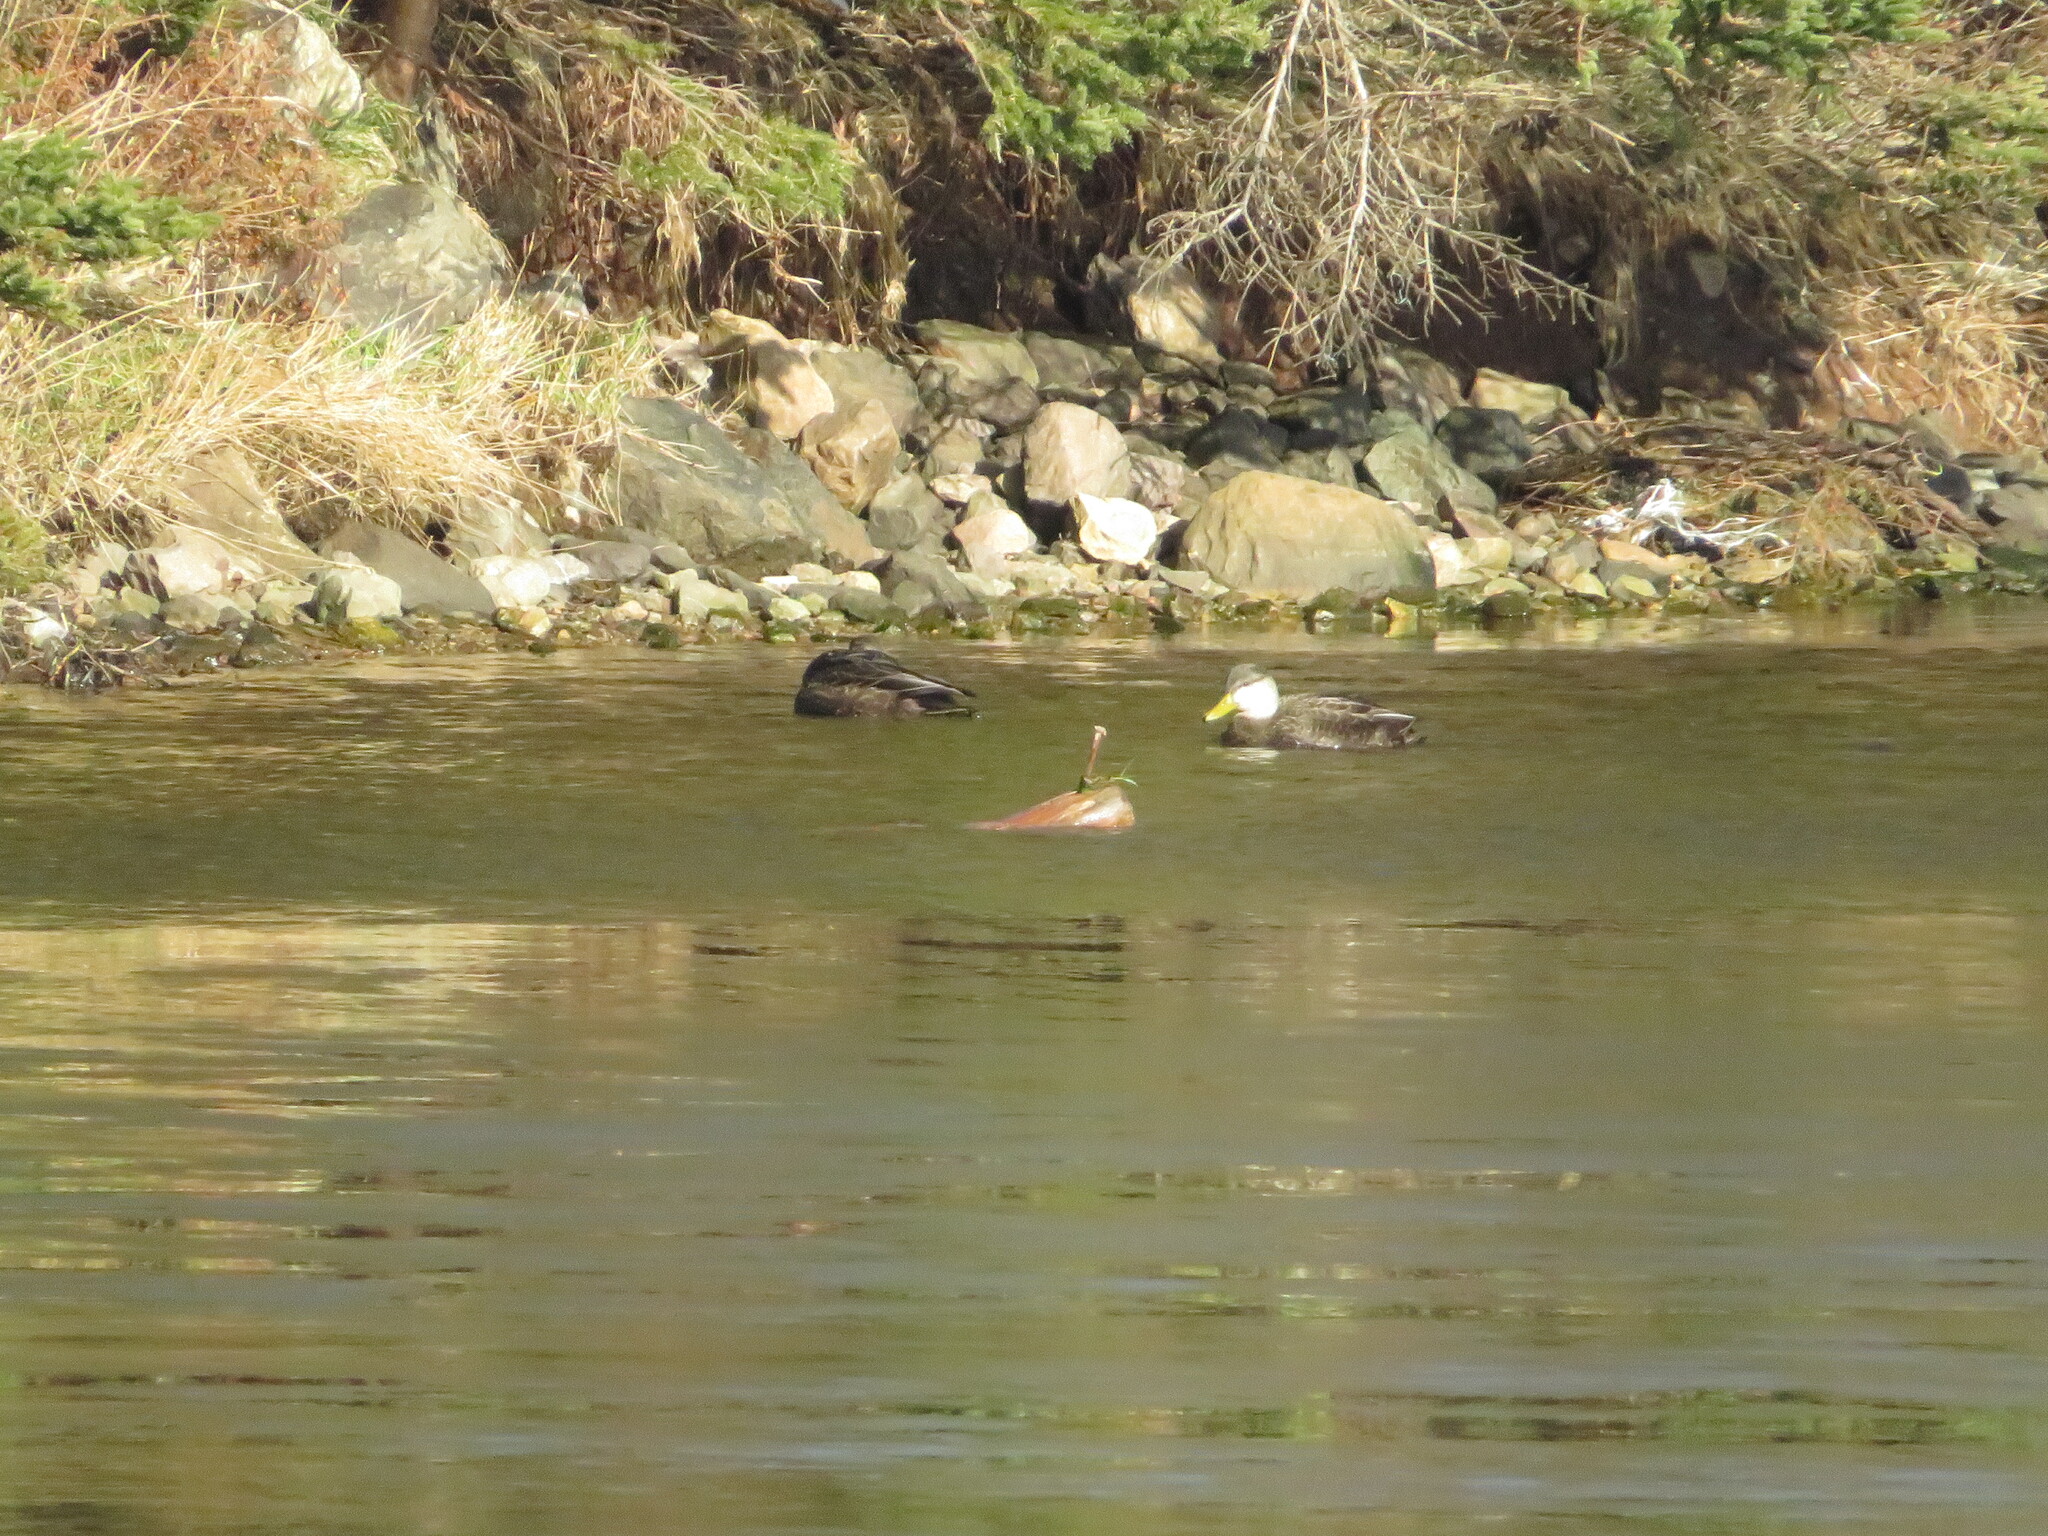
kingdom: Animalia
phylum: Chordata
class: Aves
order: Anseriformes
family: Anatidae
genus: Anas
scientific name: Anas rubripes
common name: American black duck
